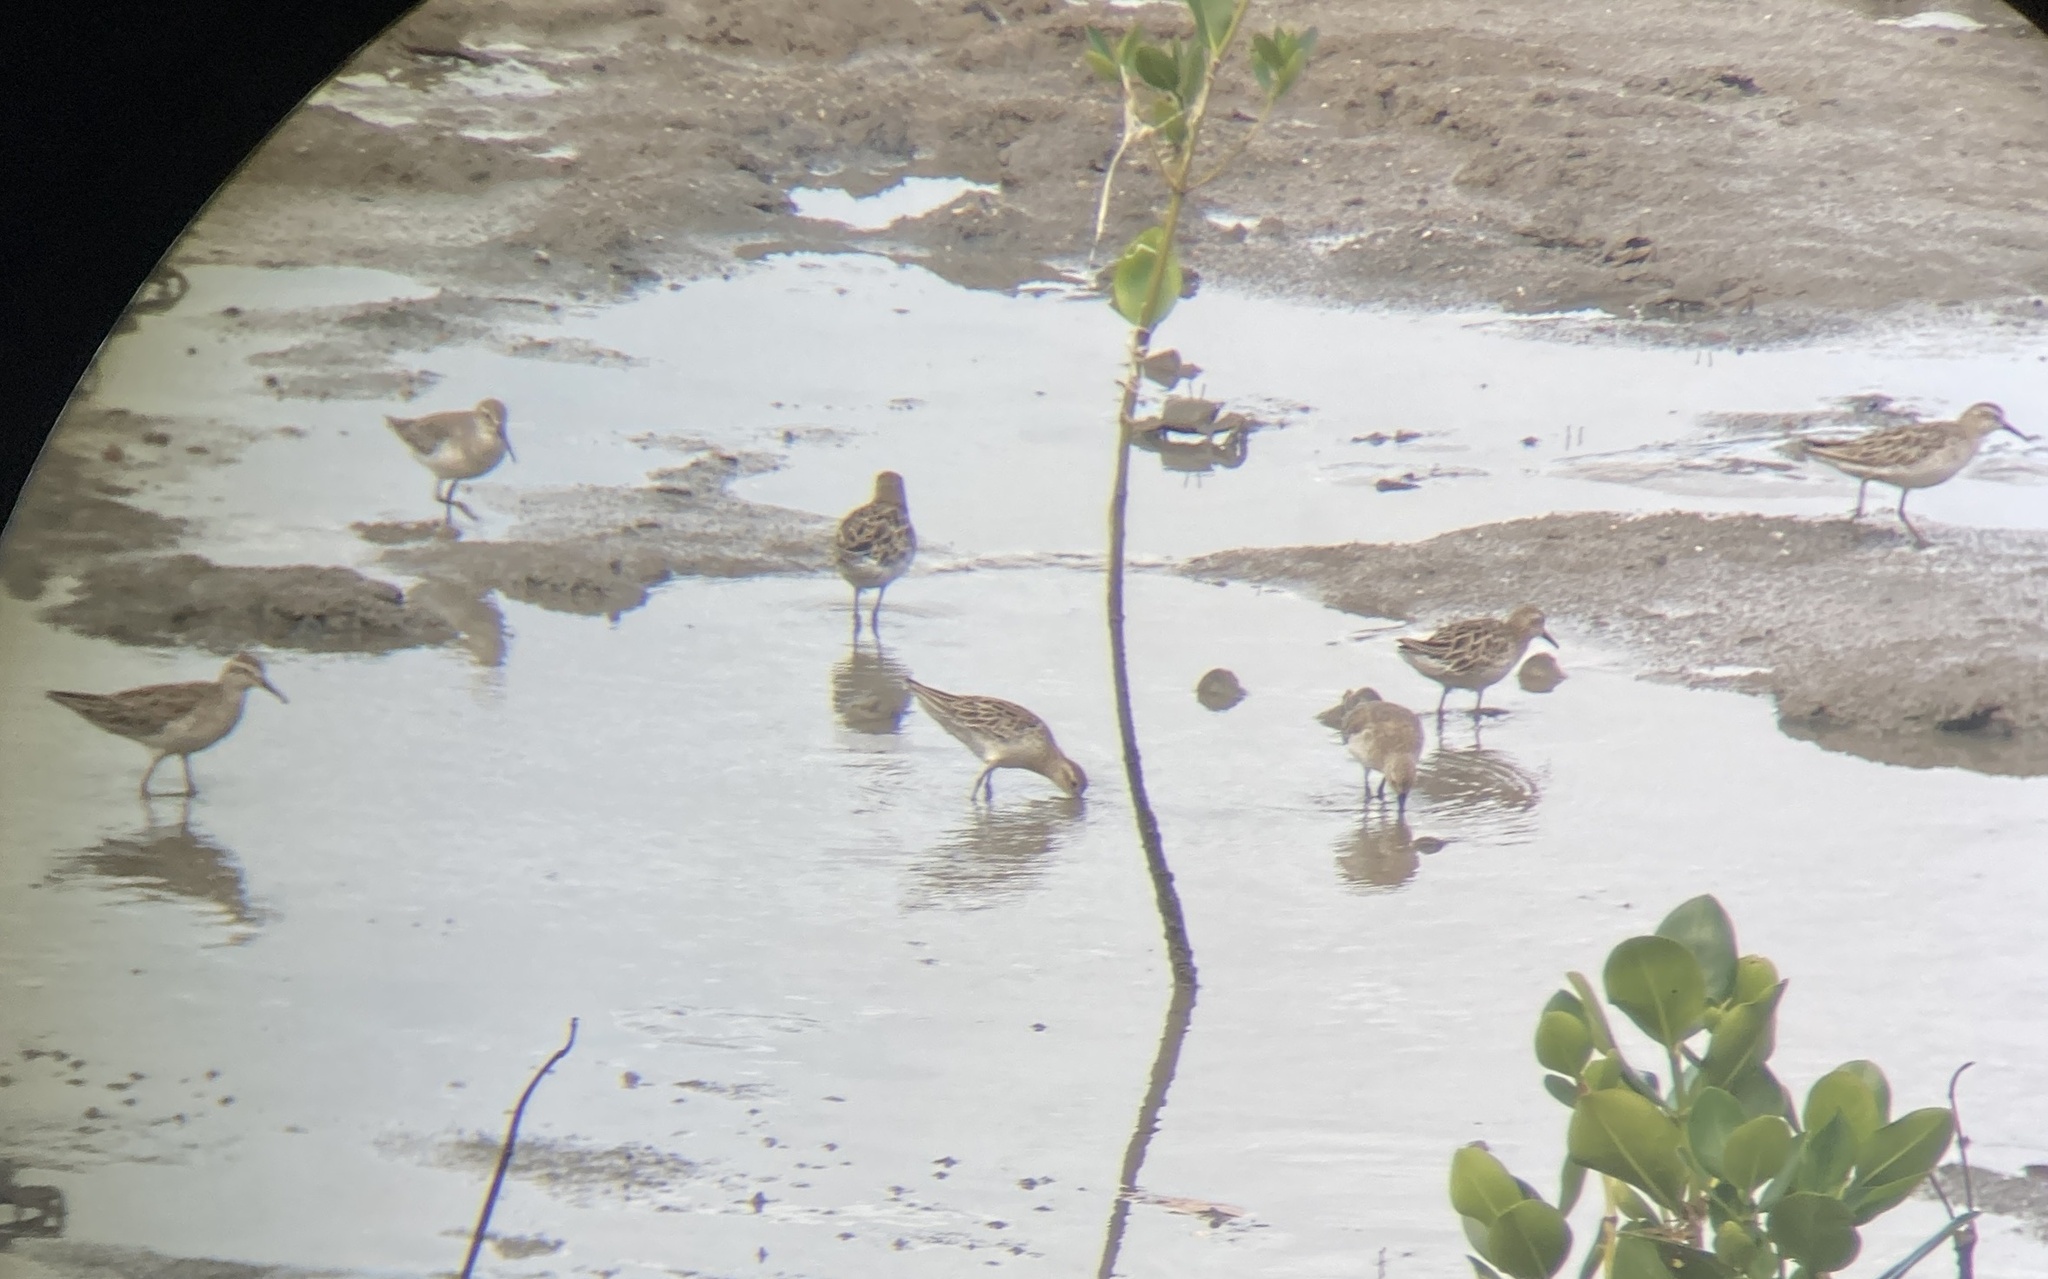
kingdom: Animalia
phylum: Chordata
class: Aves
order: Charadriiformes
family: Scolopacidae
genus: Calidris
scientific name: Calidris acuminata
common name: Sharp-tailed sandpiper
